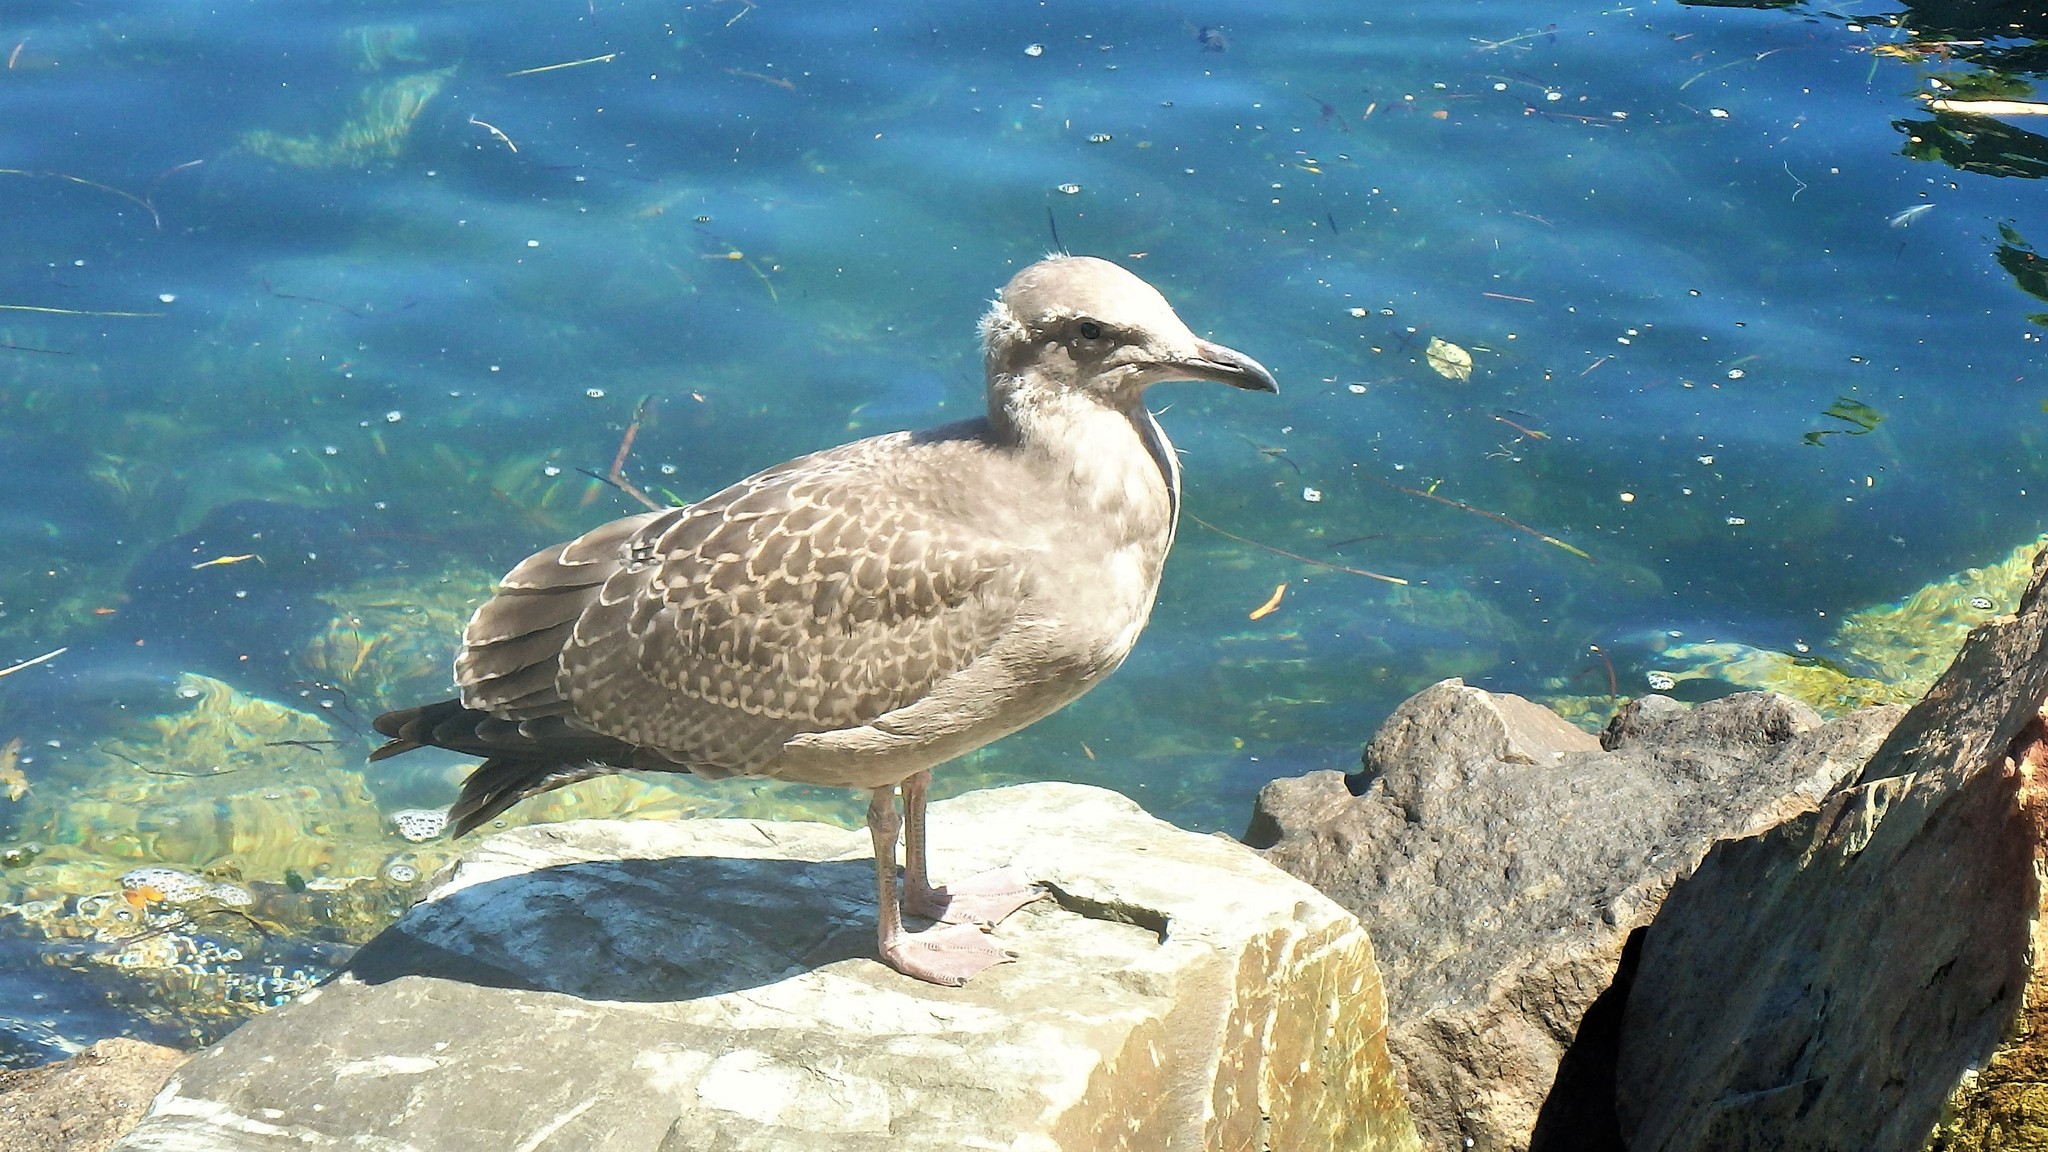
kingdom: Animalia
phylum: Chordata
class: Aves
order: Charadriiformes
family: Laridae
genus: Larus
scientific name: Larus argentatus
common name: Herring gull
